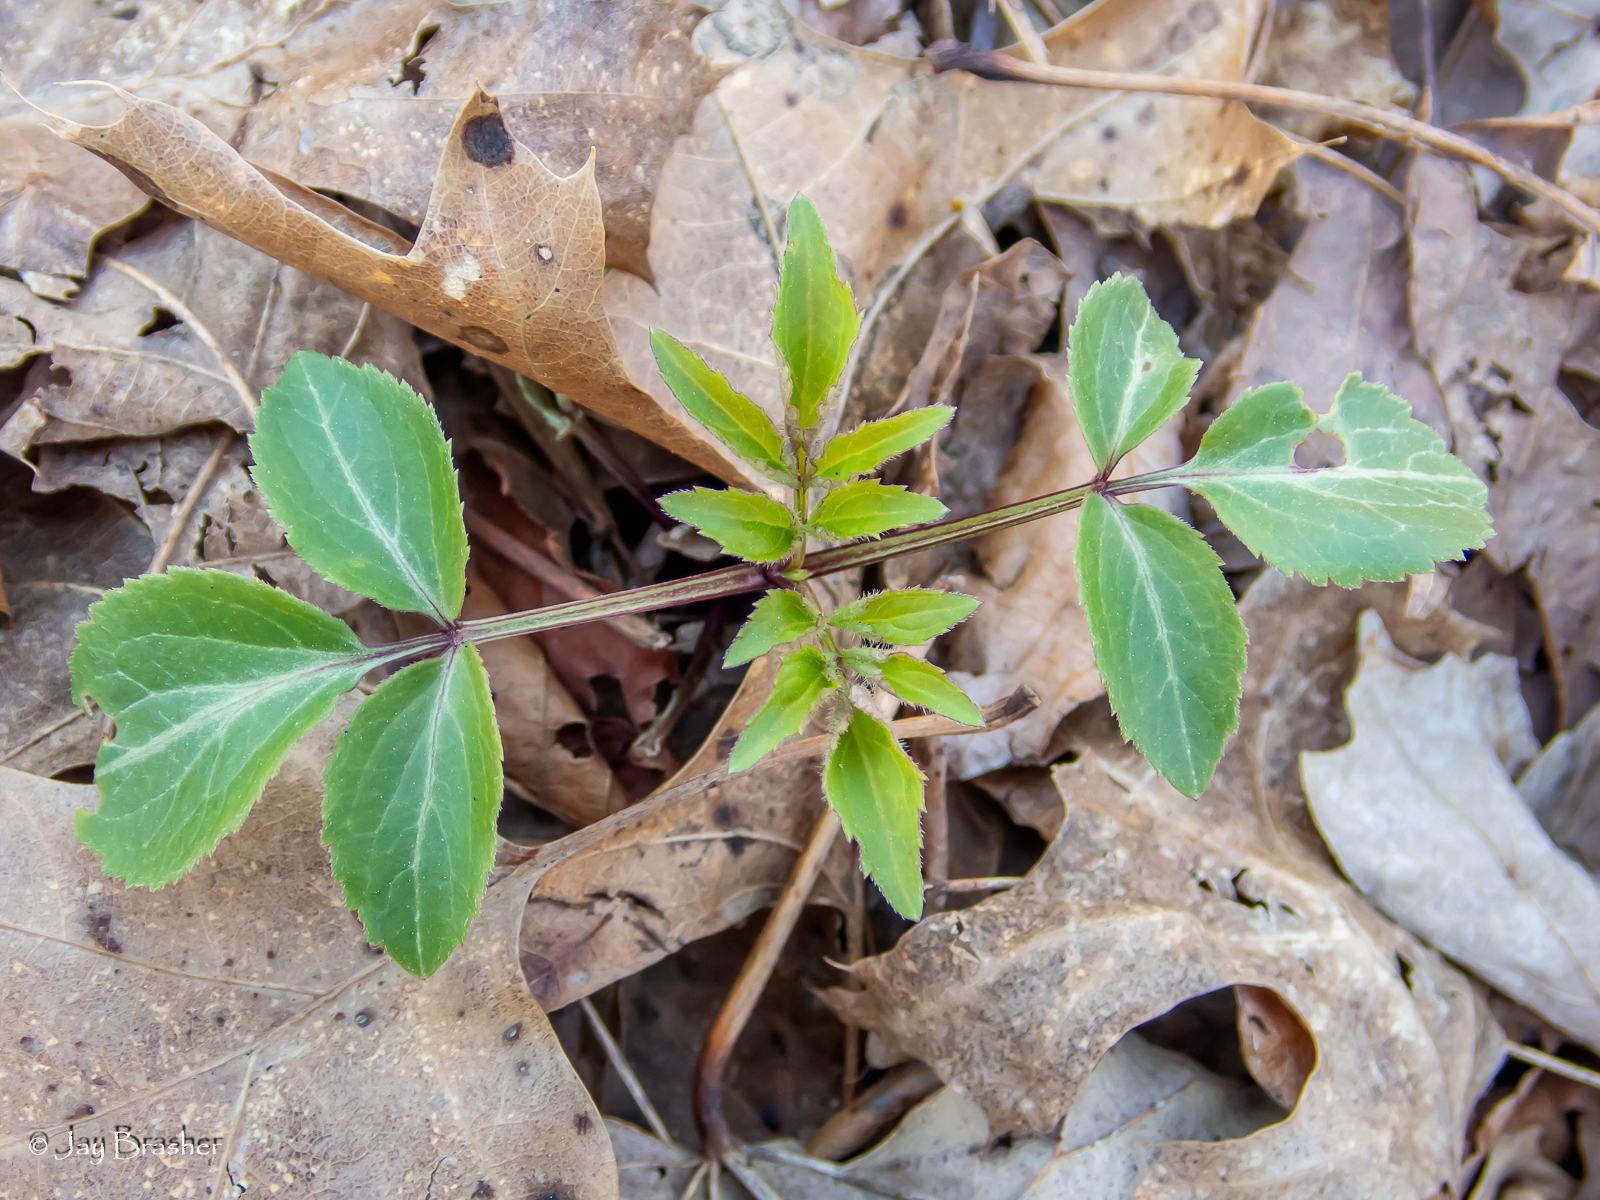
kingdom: Plantae
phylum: Tracheophyta
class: Magnoliopsida
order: Dipsacales
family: Viburnaceae
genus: Sambucus
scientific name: Sambucus canadensis
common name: American elder
